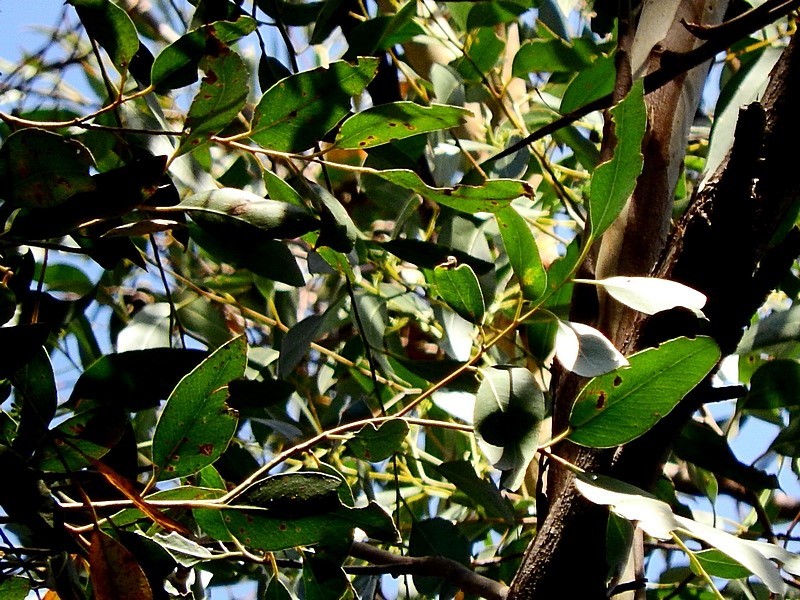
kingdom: Plantae
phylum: Tracheophyta
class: Magnoliopsida
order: Myrtales
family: Myrtaceae
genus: Eucalyptus
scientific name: Eucalyptus muelleriana
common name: Yellow-stringybark
